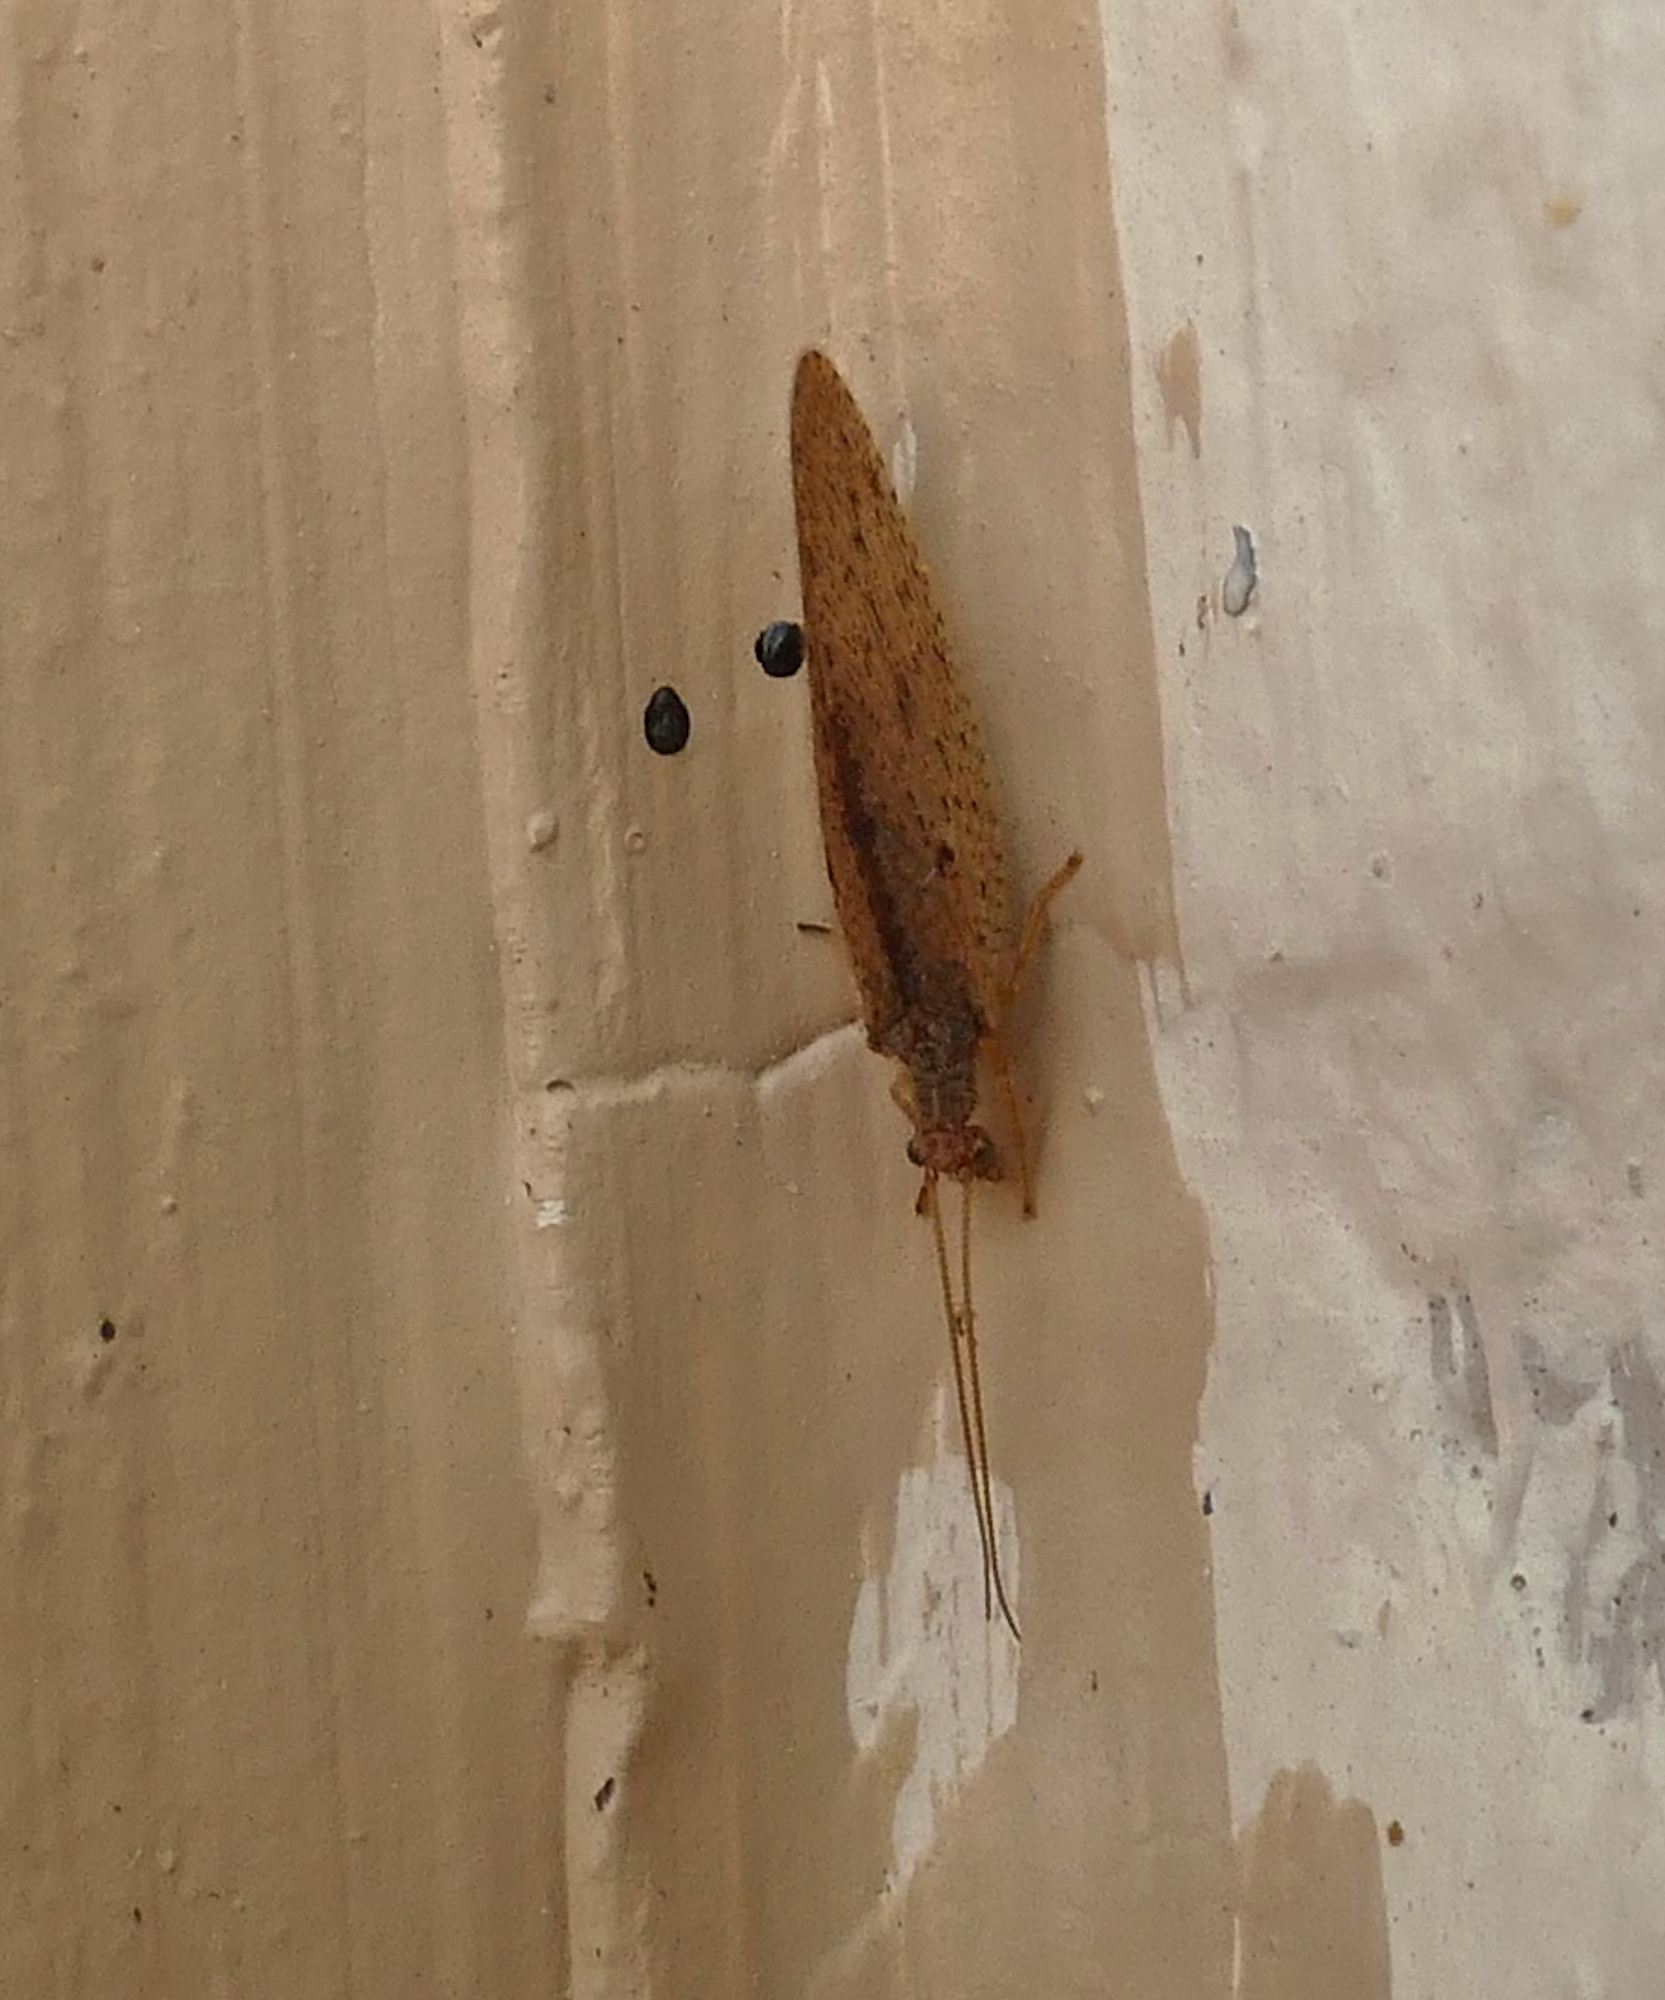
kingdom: Animalia
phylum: Arthropoda
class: Insecta
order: Neuroptera
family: Hemerobiidae
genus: Micromus
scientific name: Micromus subanticus
